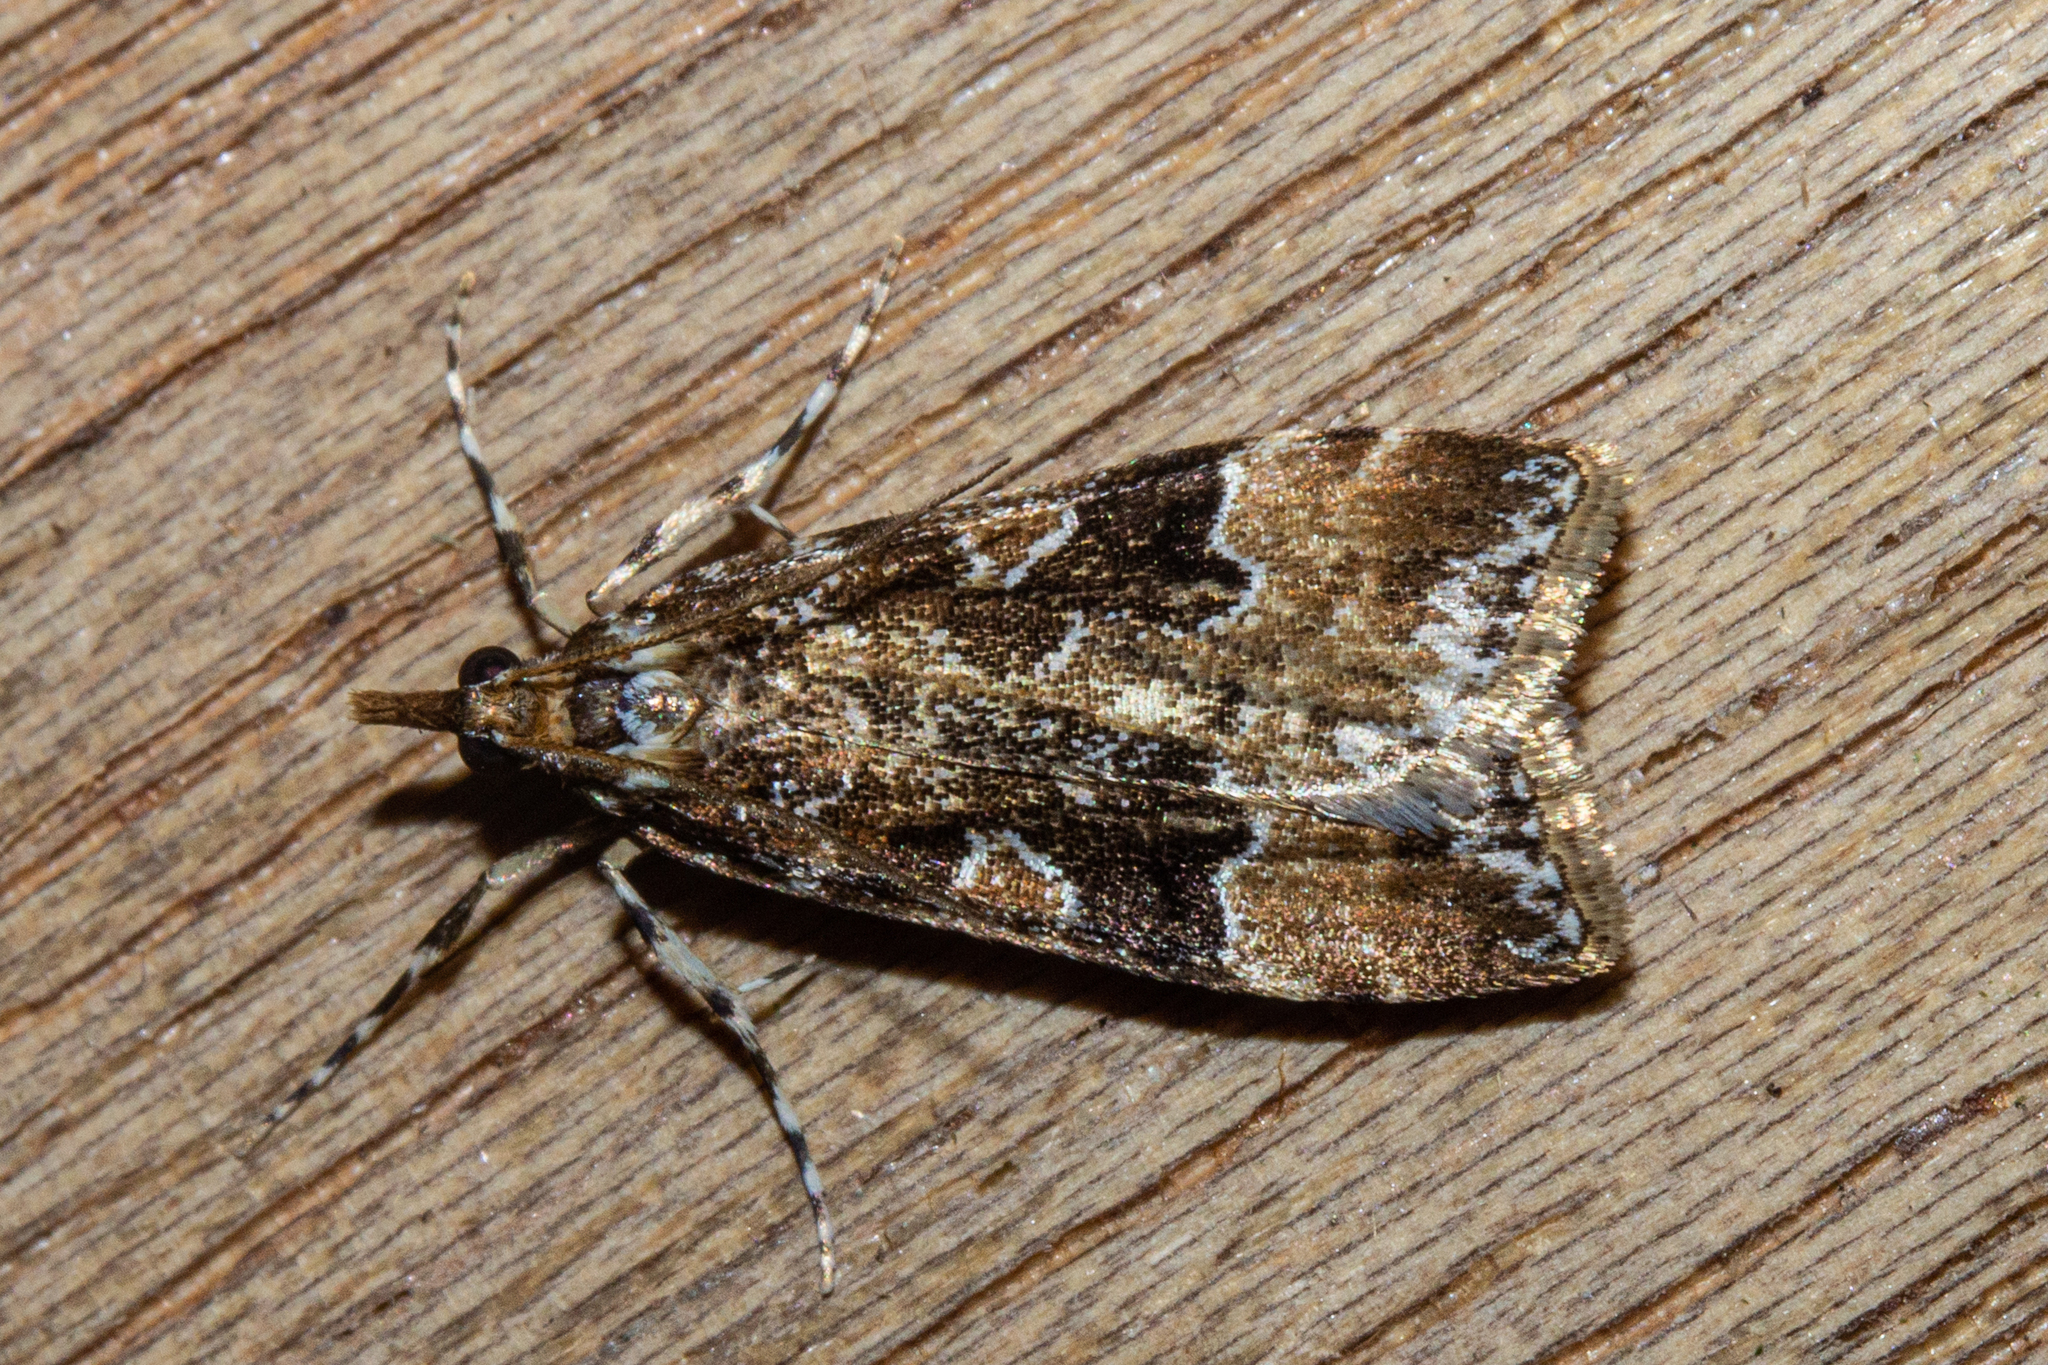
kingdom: Animalia
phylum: Arthropoda
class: Insecta
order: Lepidoptera
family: Crambidae
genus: Scoparia
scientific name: Scoparia ustimacula
